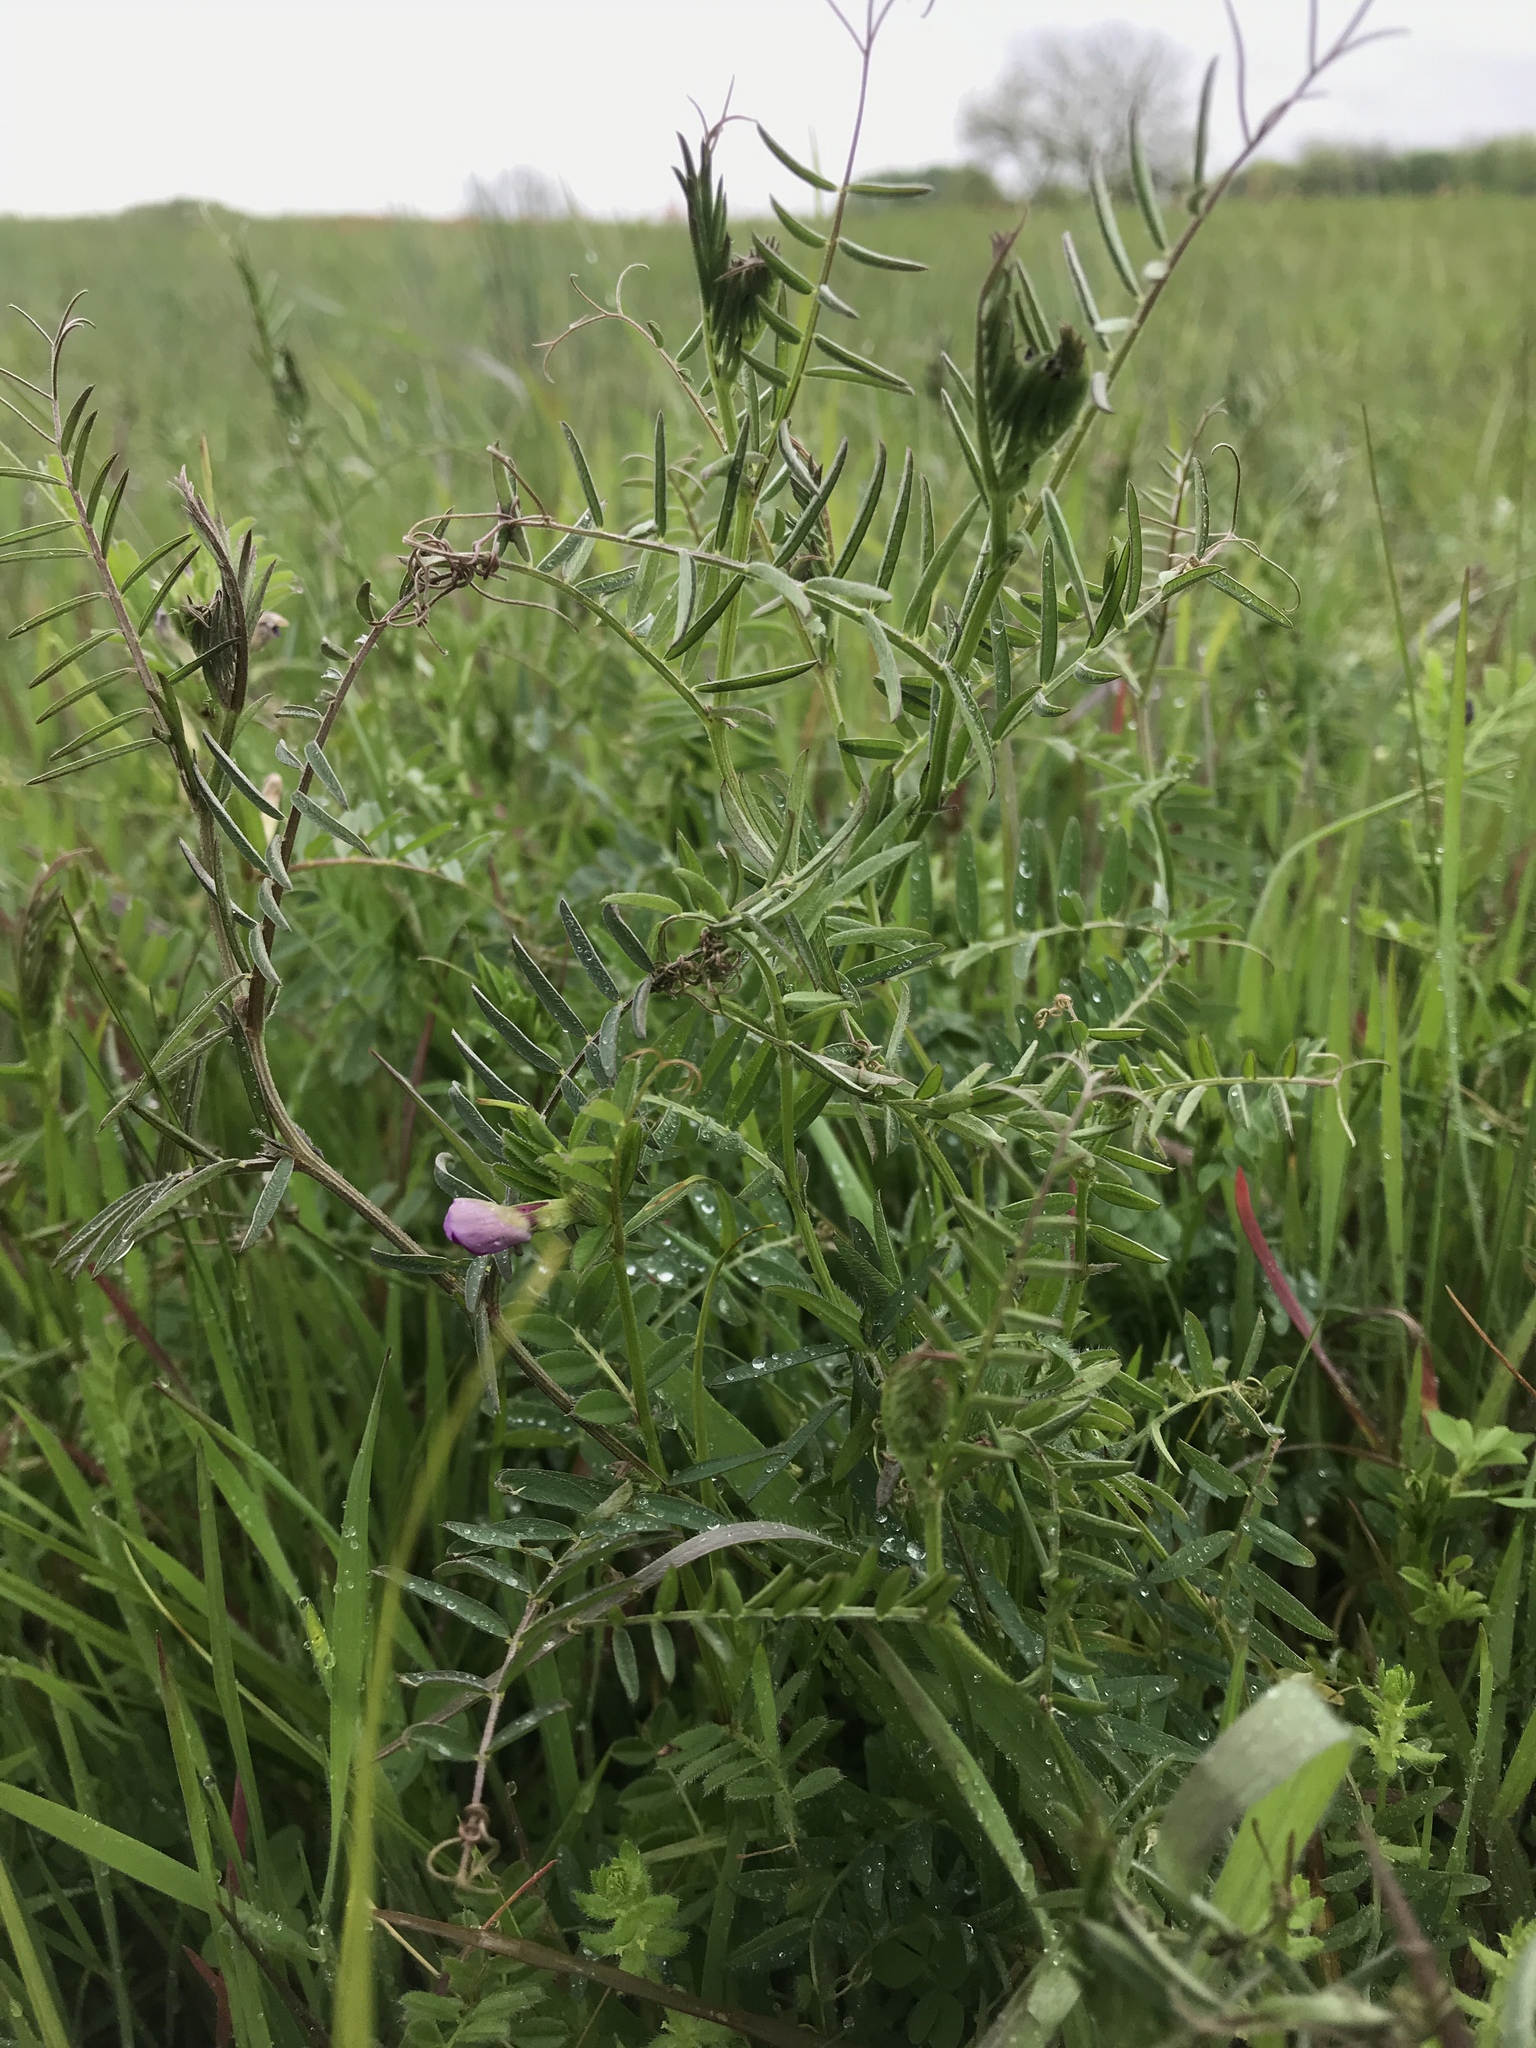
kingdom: Plantae
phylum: Tracheophyta
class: Magnoliopsida
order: Fabales
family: Fabaceae
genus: Vicia
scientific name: Vicia sativa
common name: Garden vetch
